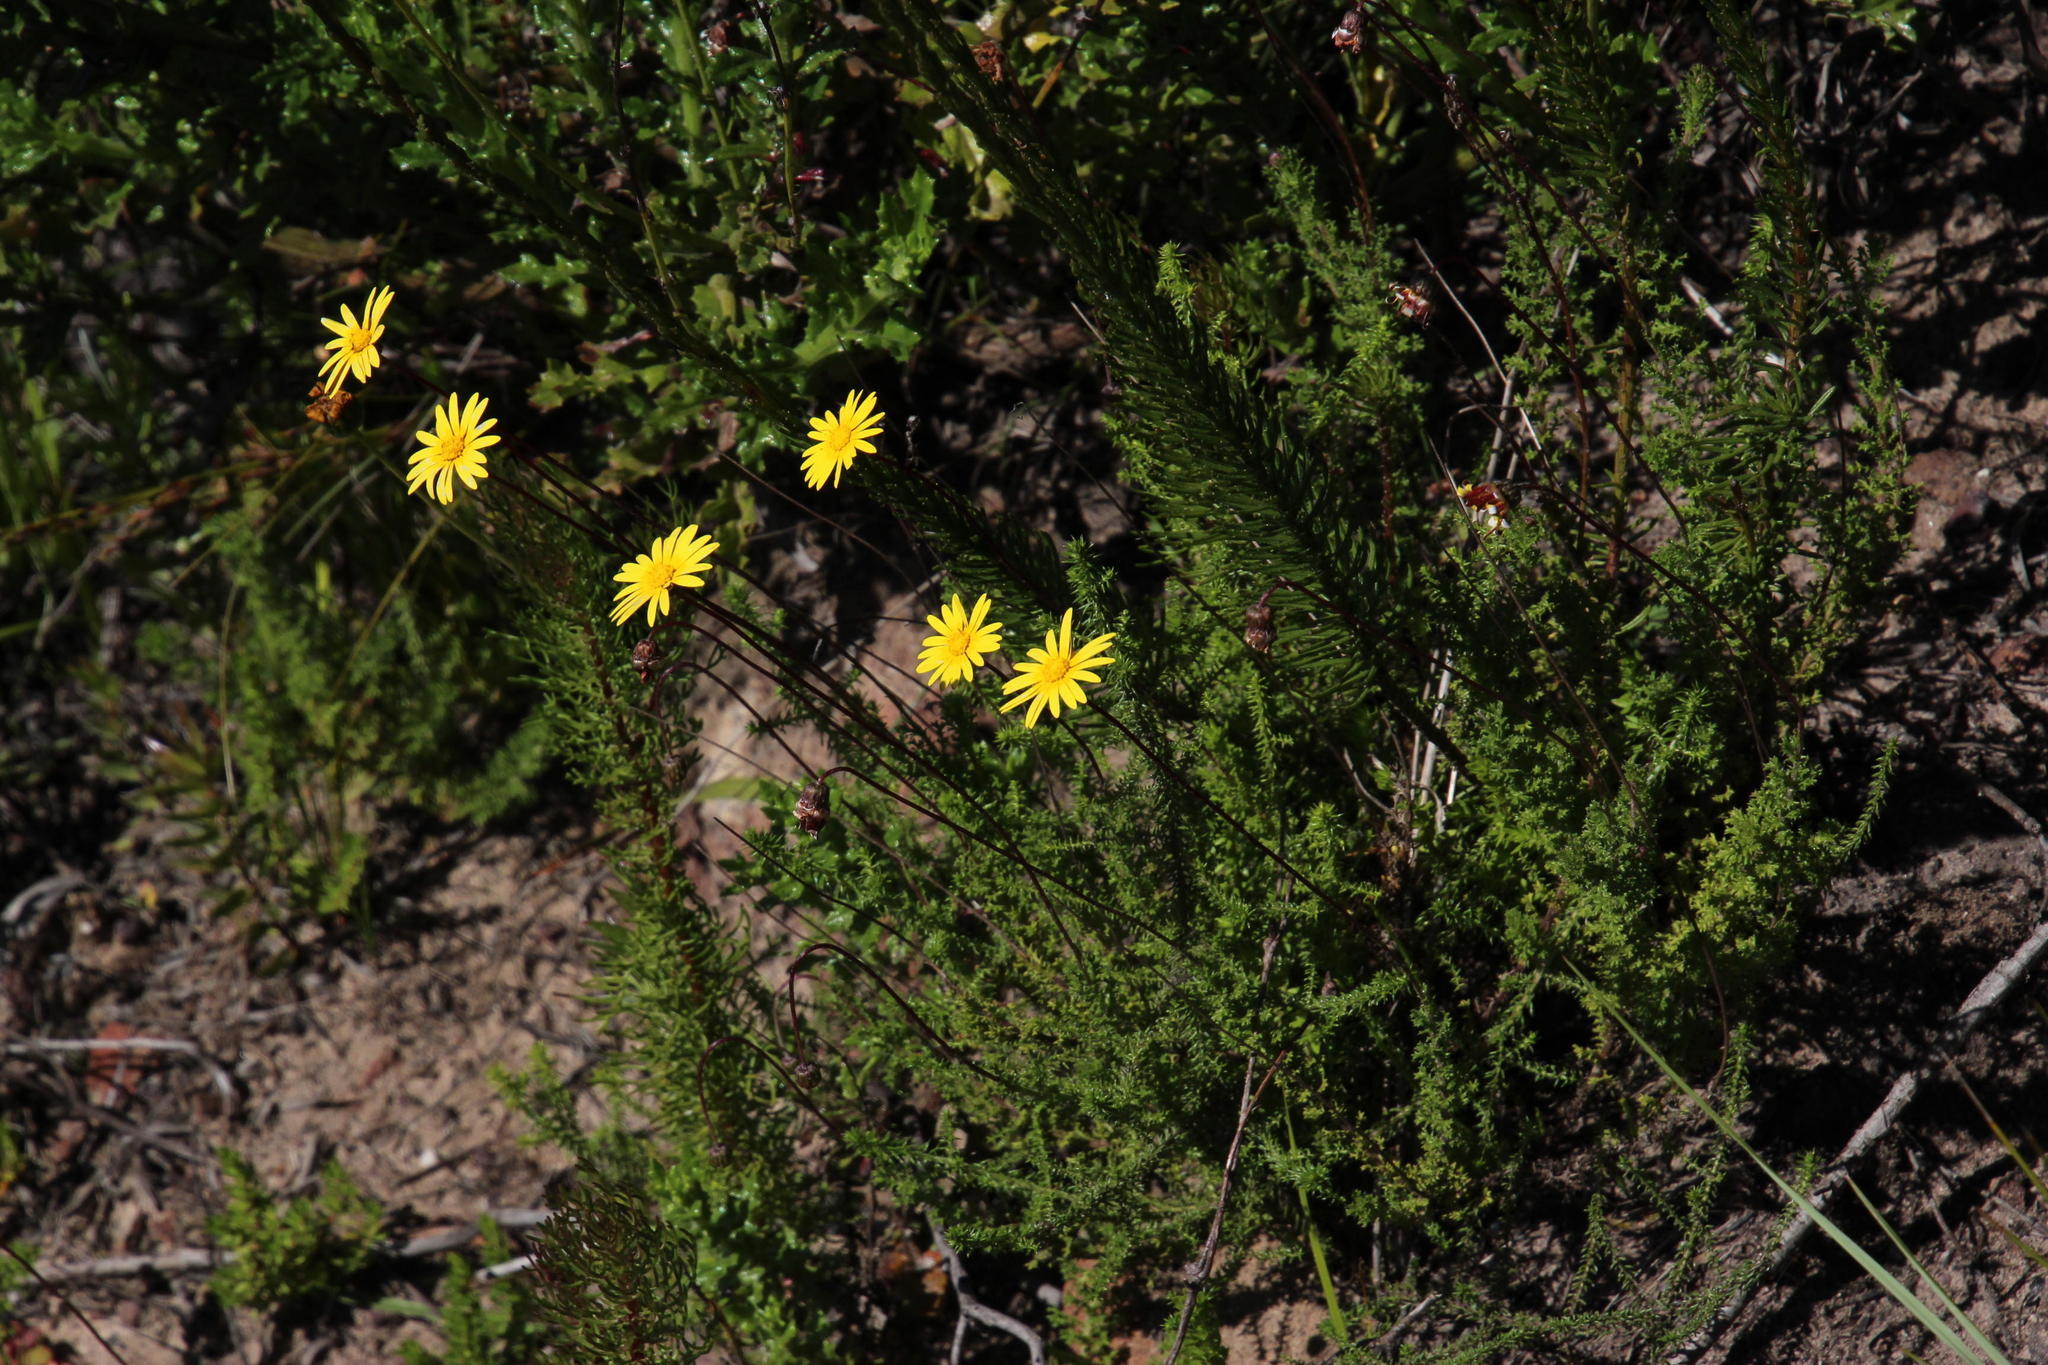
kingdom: Plantae
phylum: Tracheophyta
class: Magnoliopsida
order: Asterales
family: Asteraceae
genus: Ursinia
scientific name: Ursinia dentata
